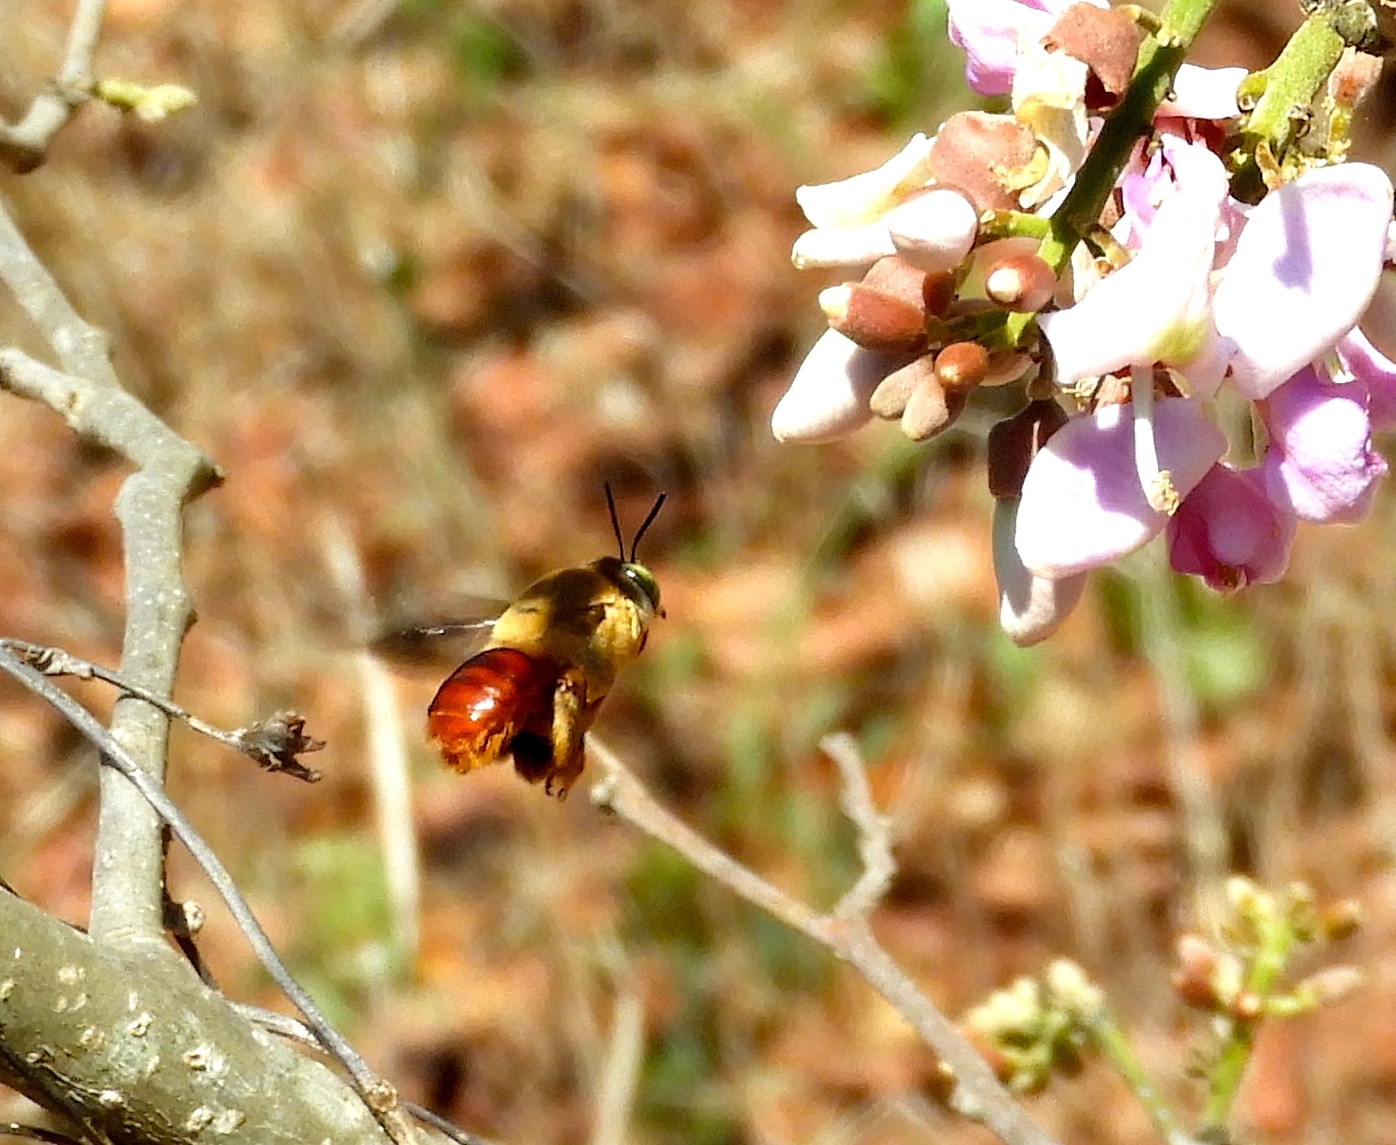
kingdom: Animalia
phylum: Arthropoda
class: Insecta
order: Hymenoptera
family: Apidae
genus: Centris
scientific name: Centris
